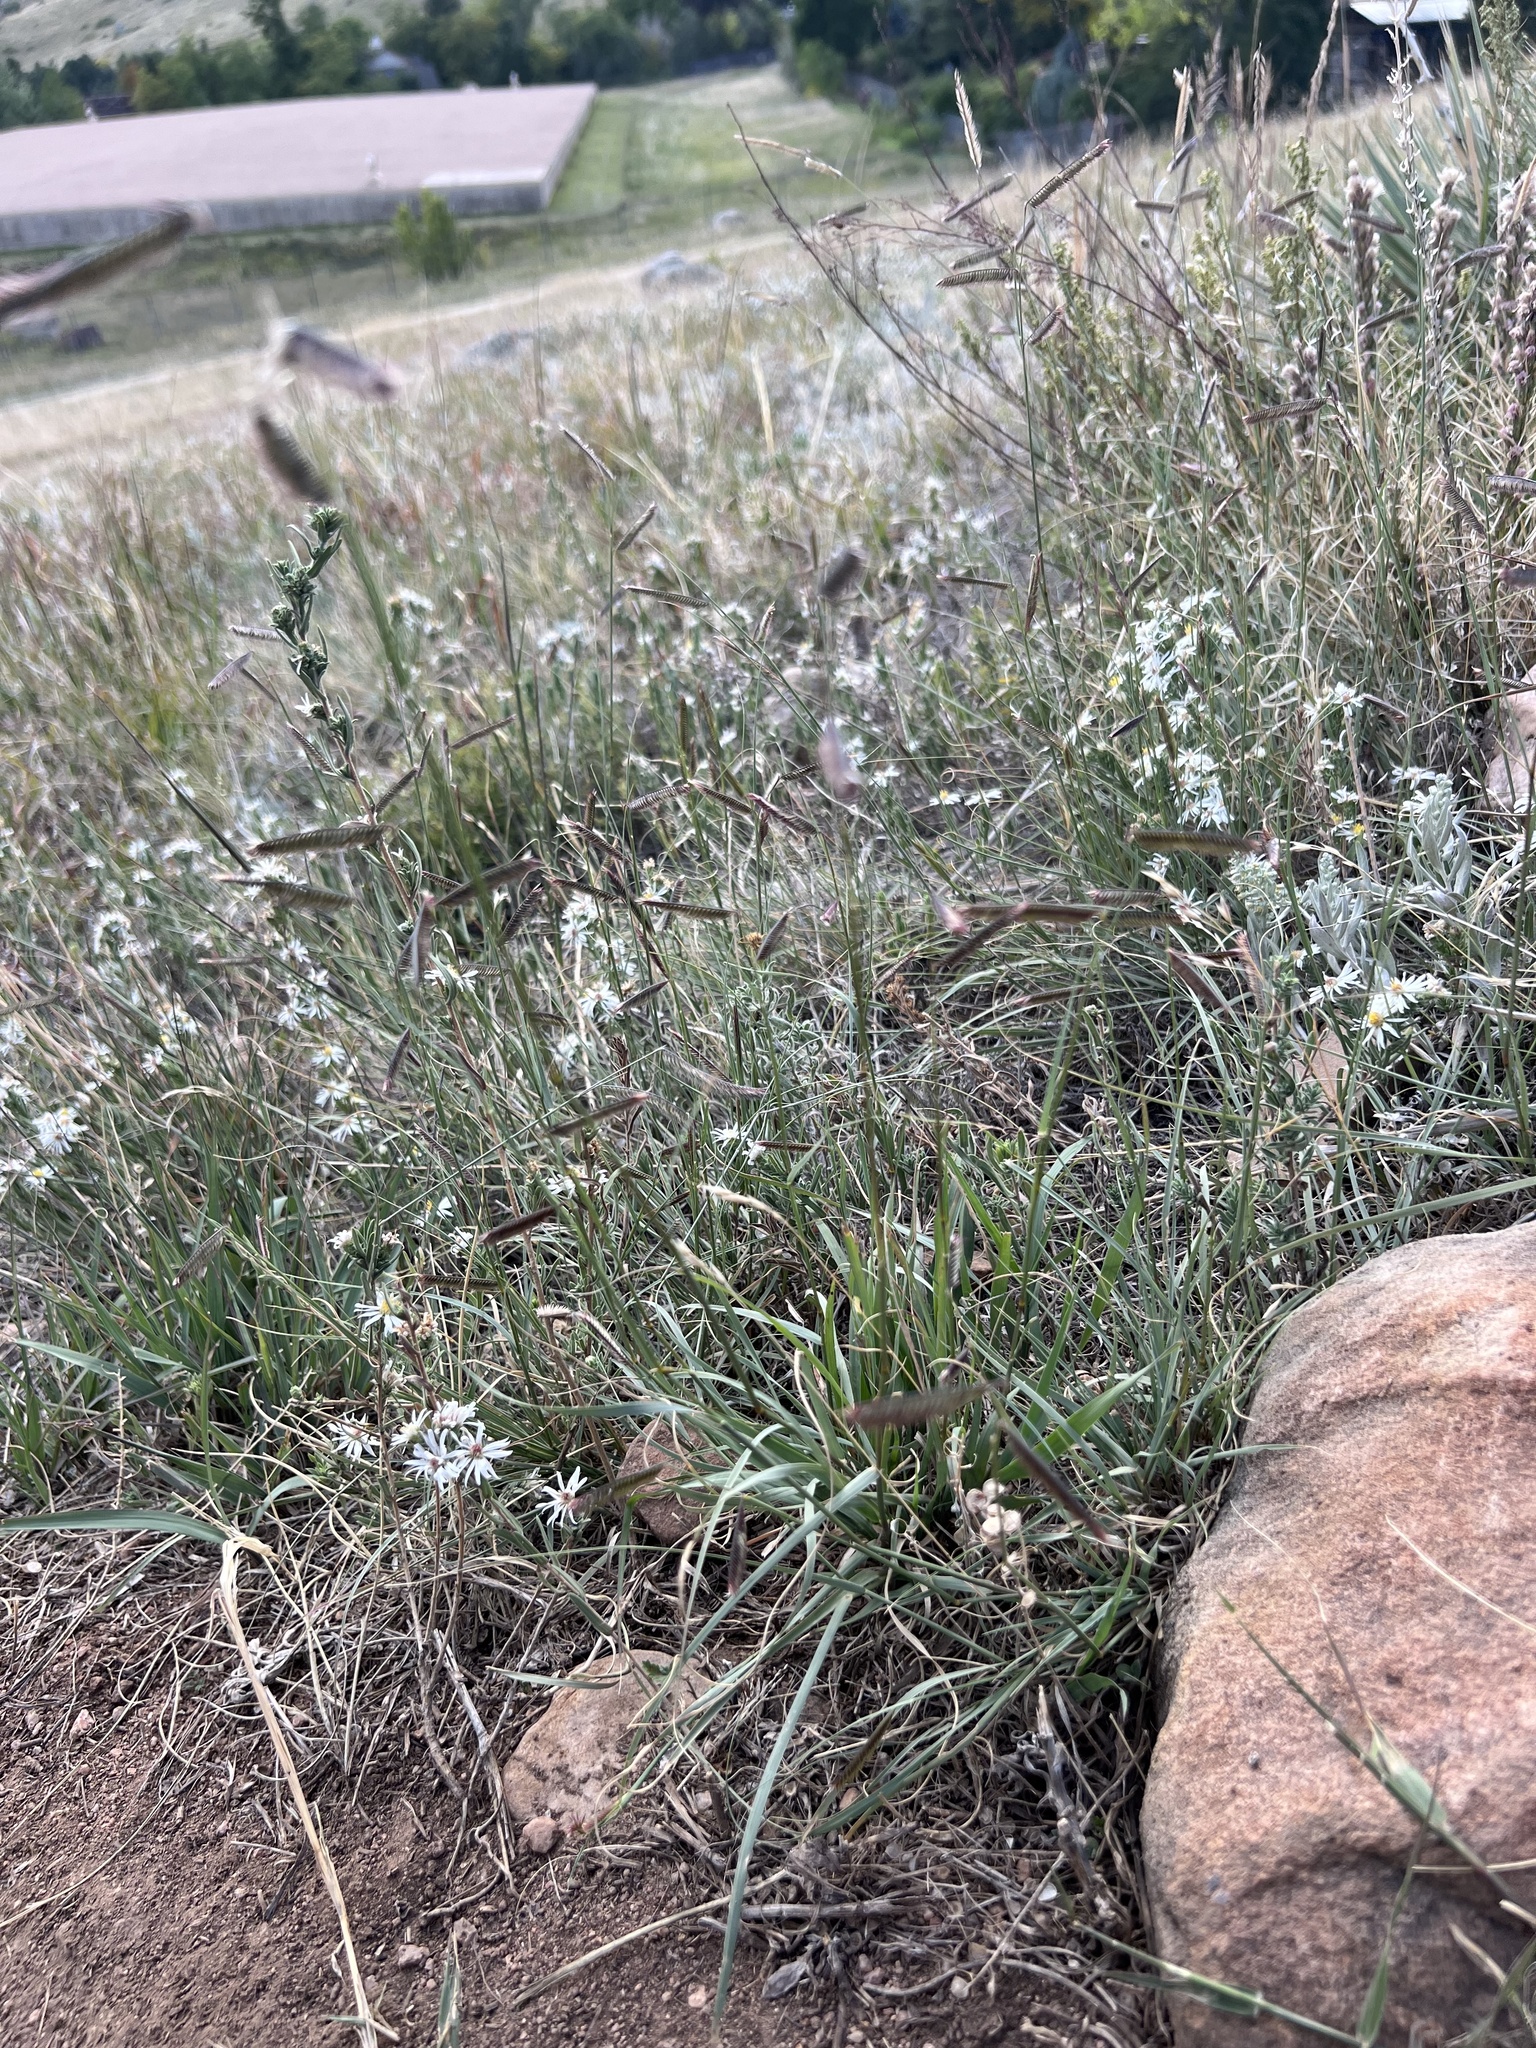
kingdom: Plantae
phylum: Tracheophyta
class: Liliopsida
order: Poales
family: Poaceae
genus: Bouteloua
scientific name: Bouteloua gracilis
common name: Blue grama
